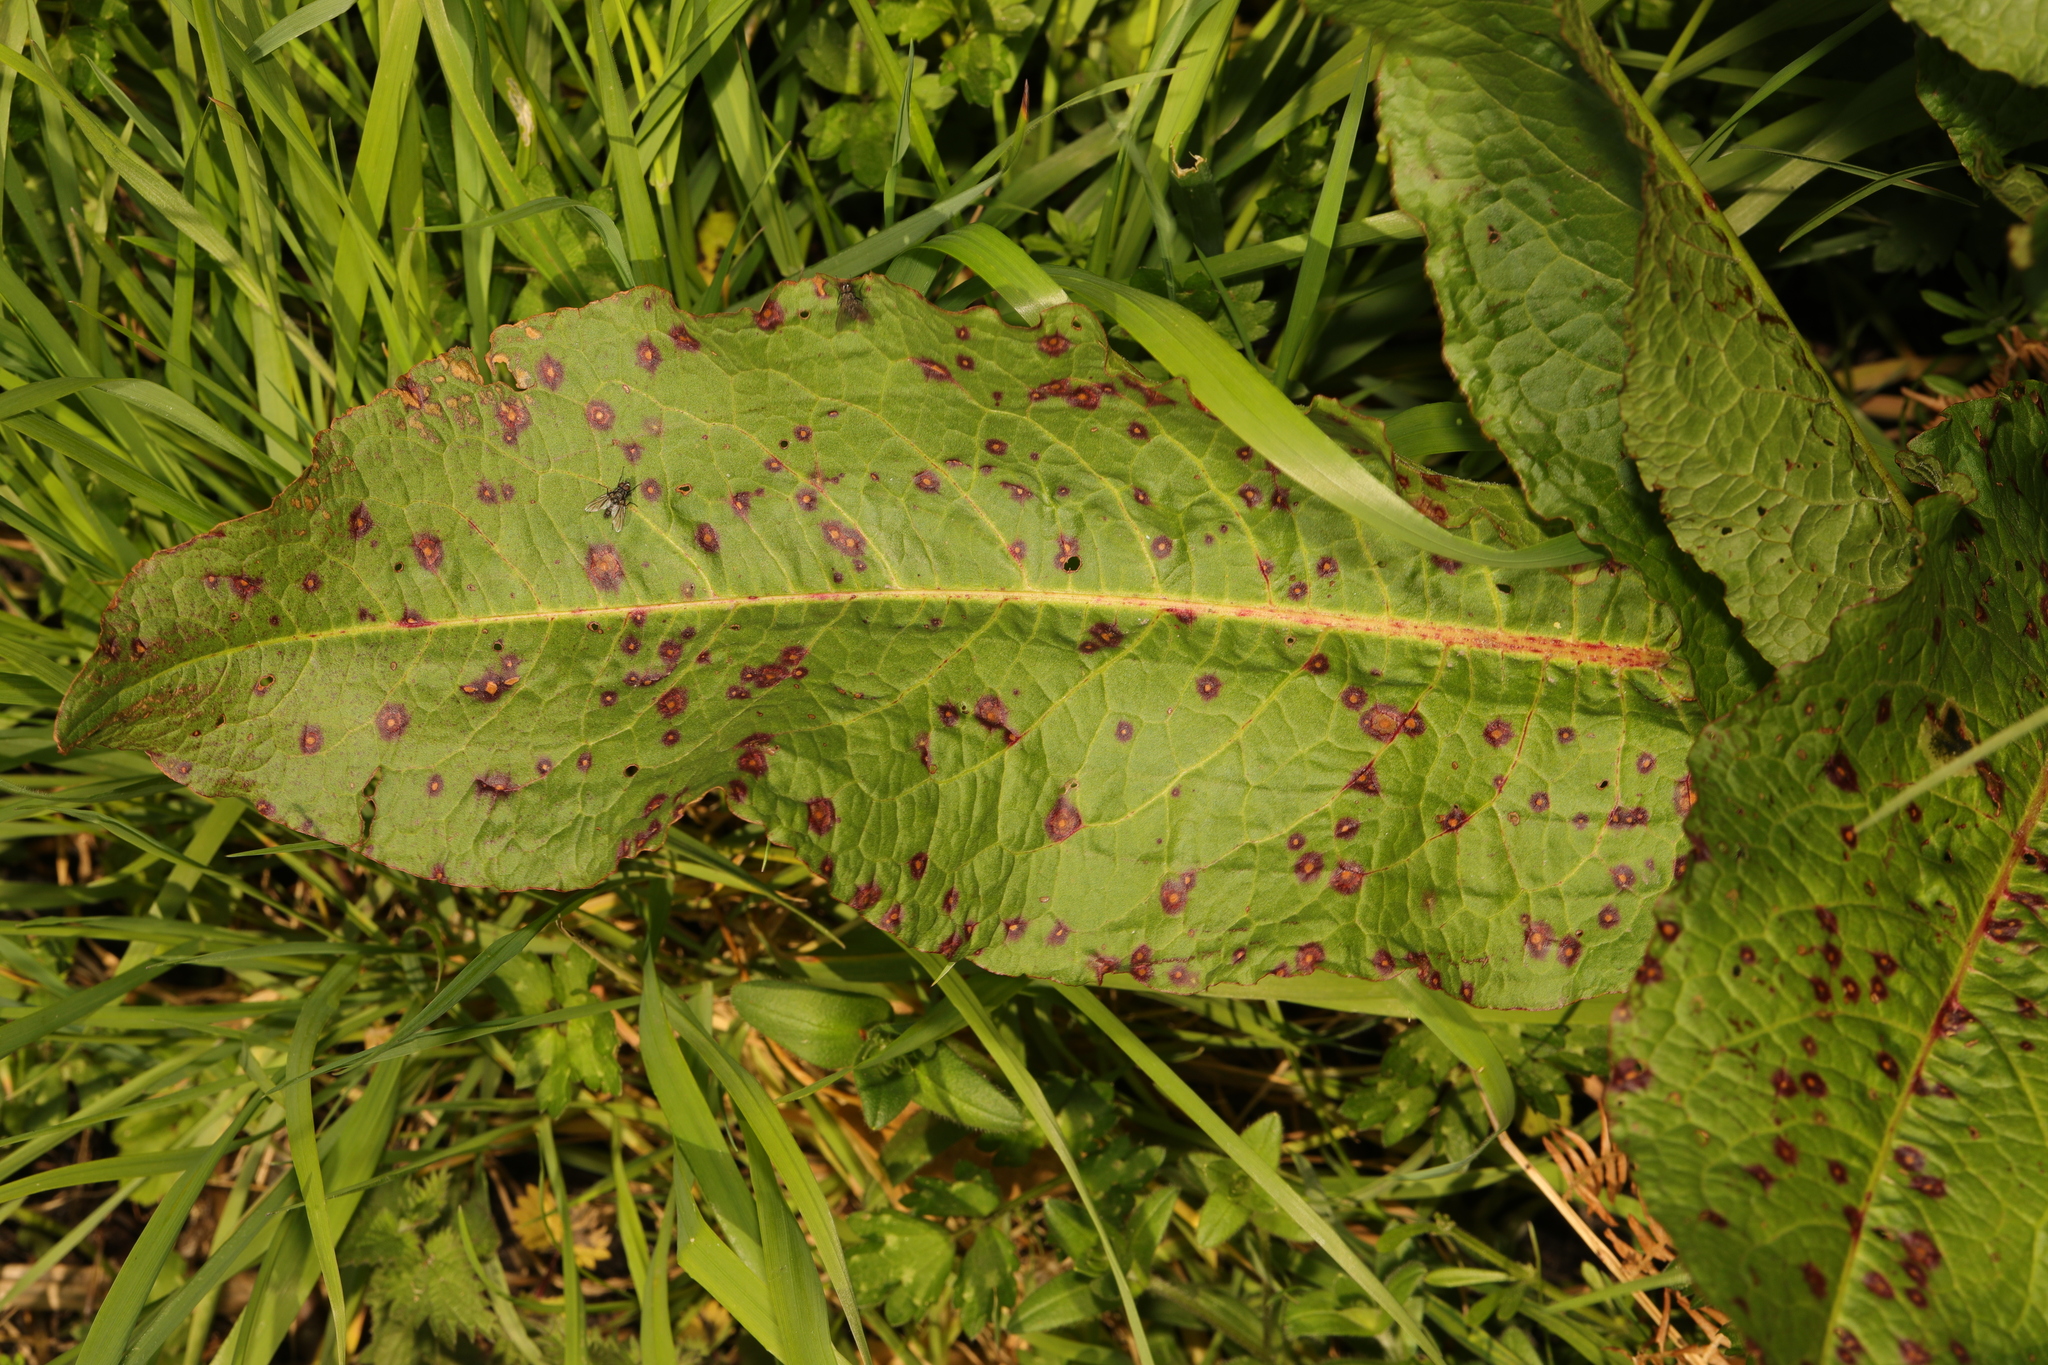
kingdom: Plantae
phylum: Tracheophyta
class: Magnoliopsida
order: Caryophyllales
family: Polygonaceae
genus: Rumex
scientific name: Rumex obtusifolius
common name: Bitter dock
